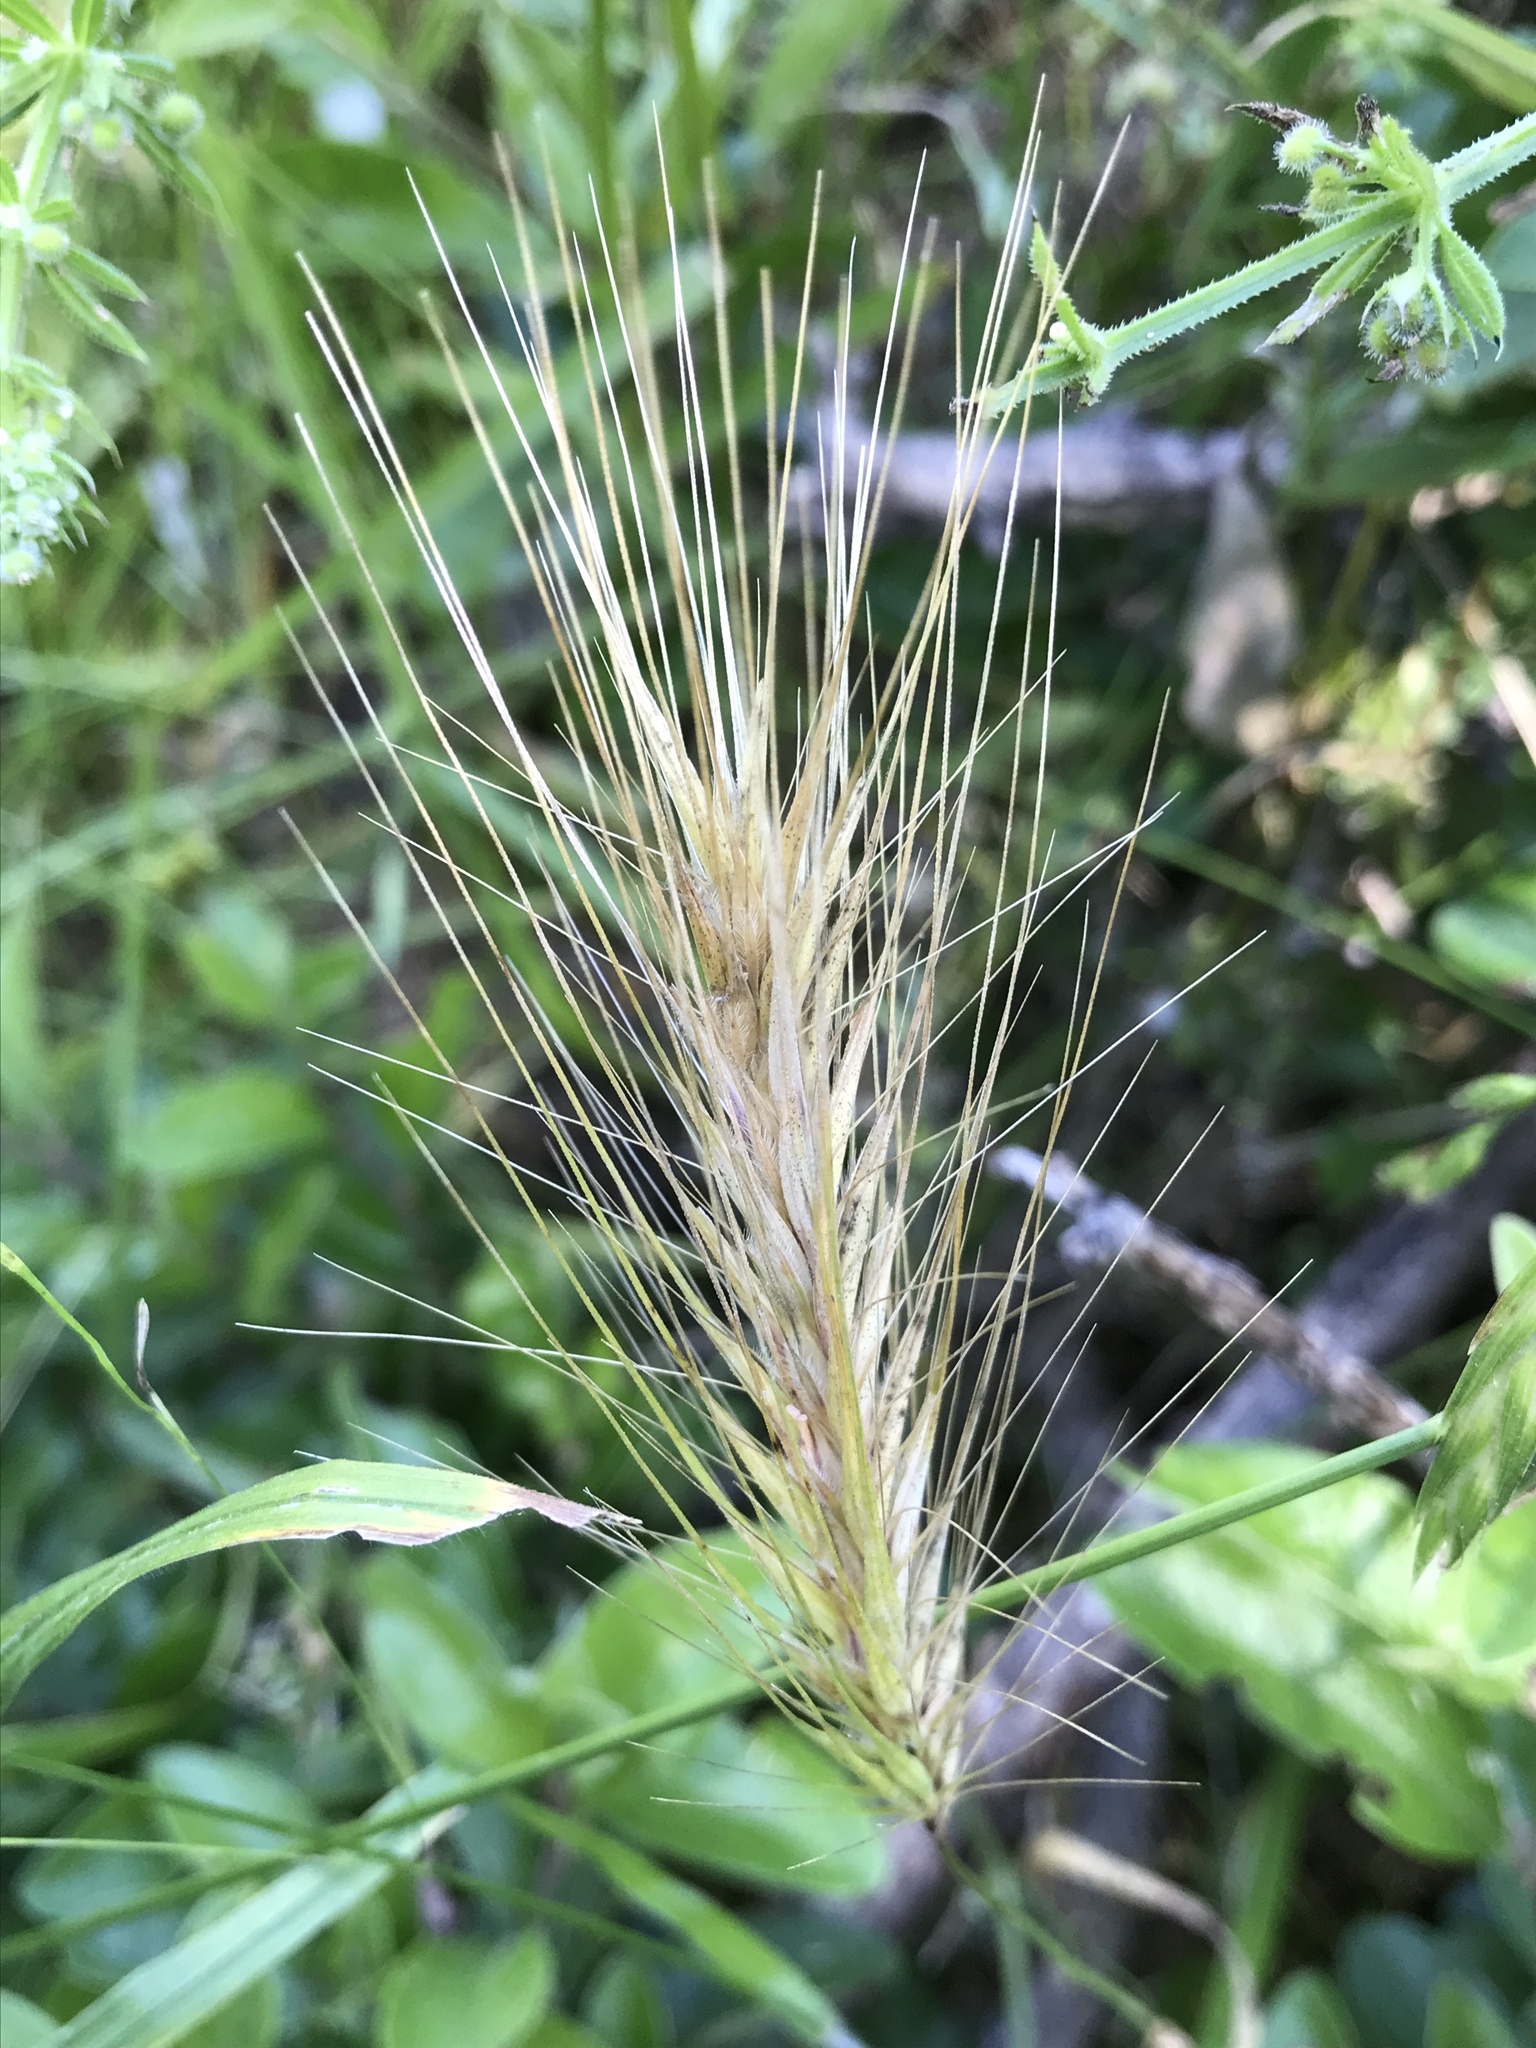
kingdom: Plantae
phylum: Tracheophyta
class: Liliopsida
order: Poales
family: Poaceae
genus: Hordeum
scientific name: Hordeum murinum
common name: Wall barley
